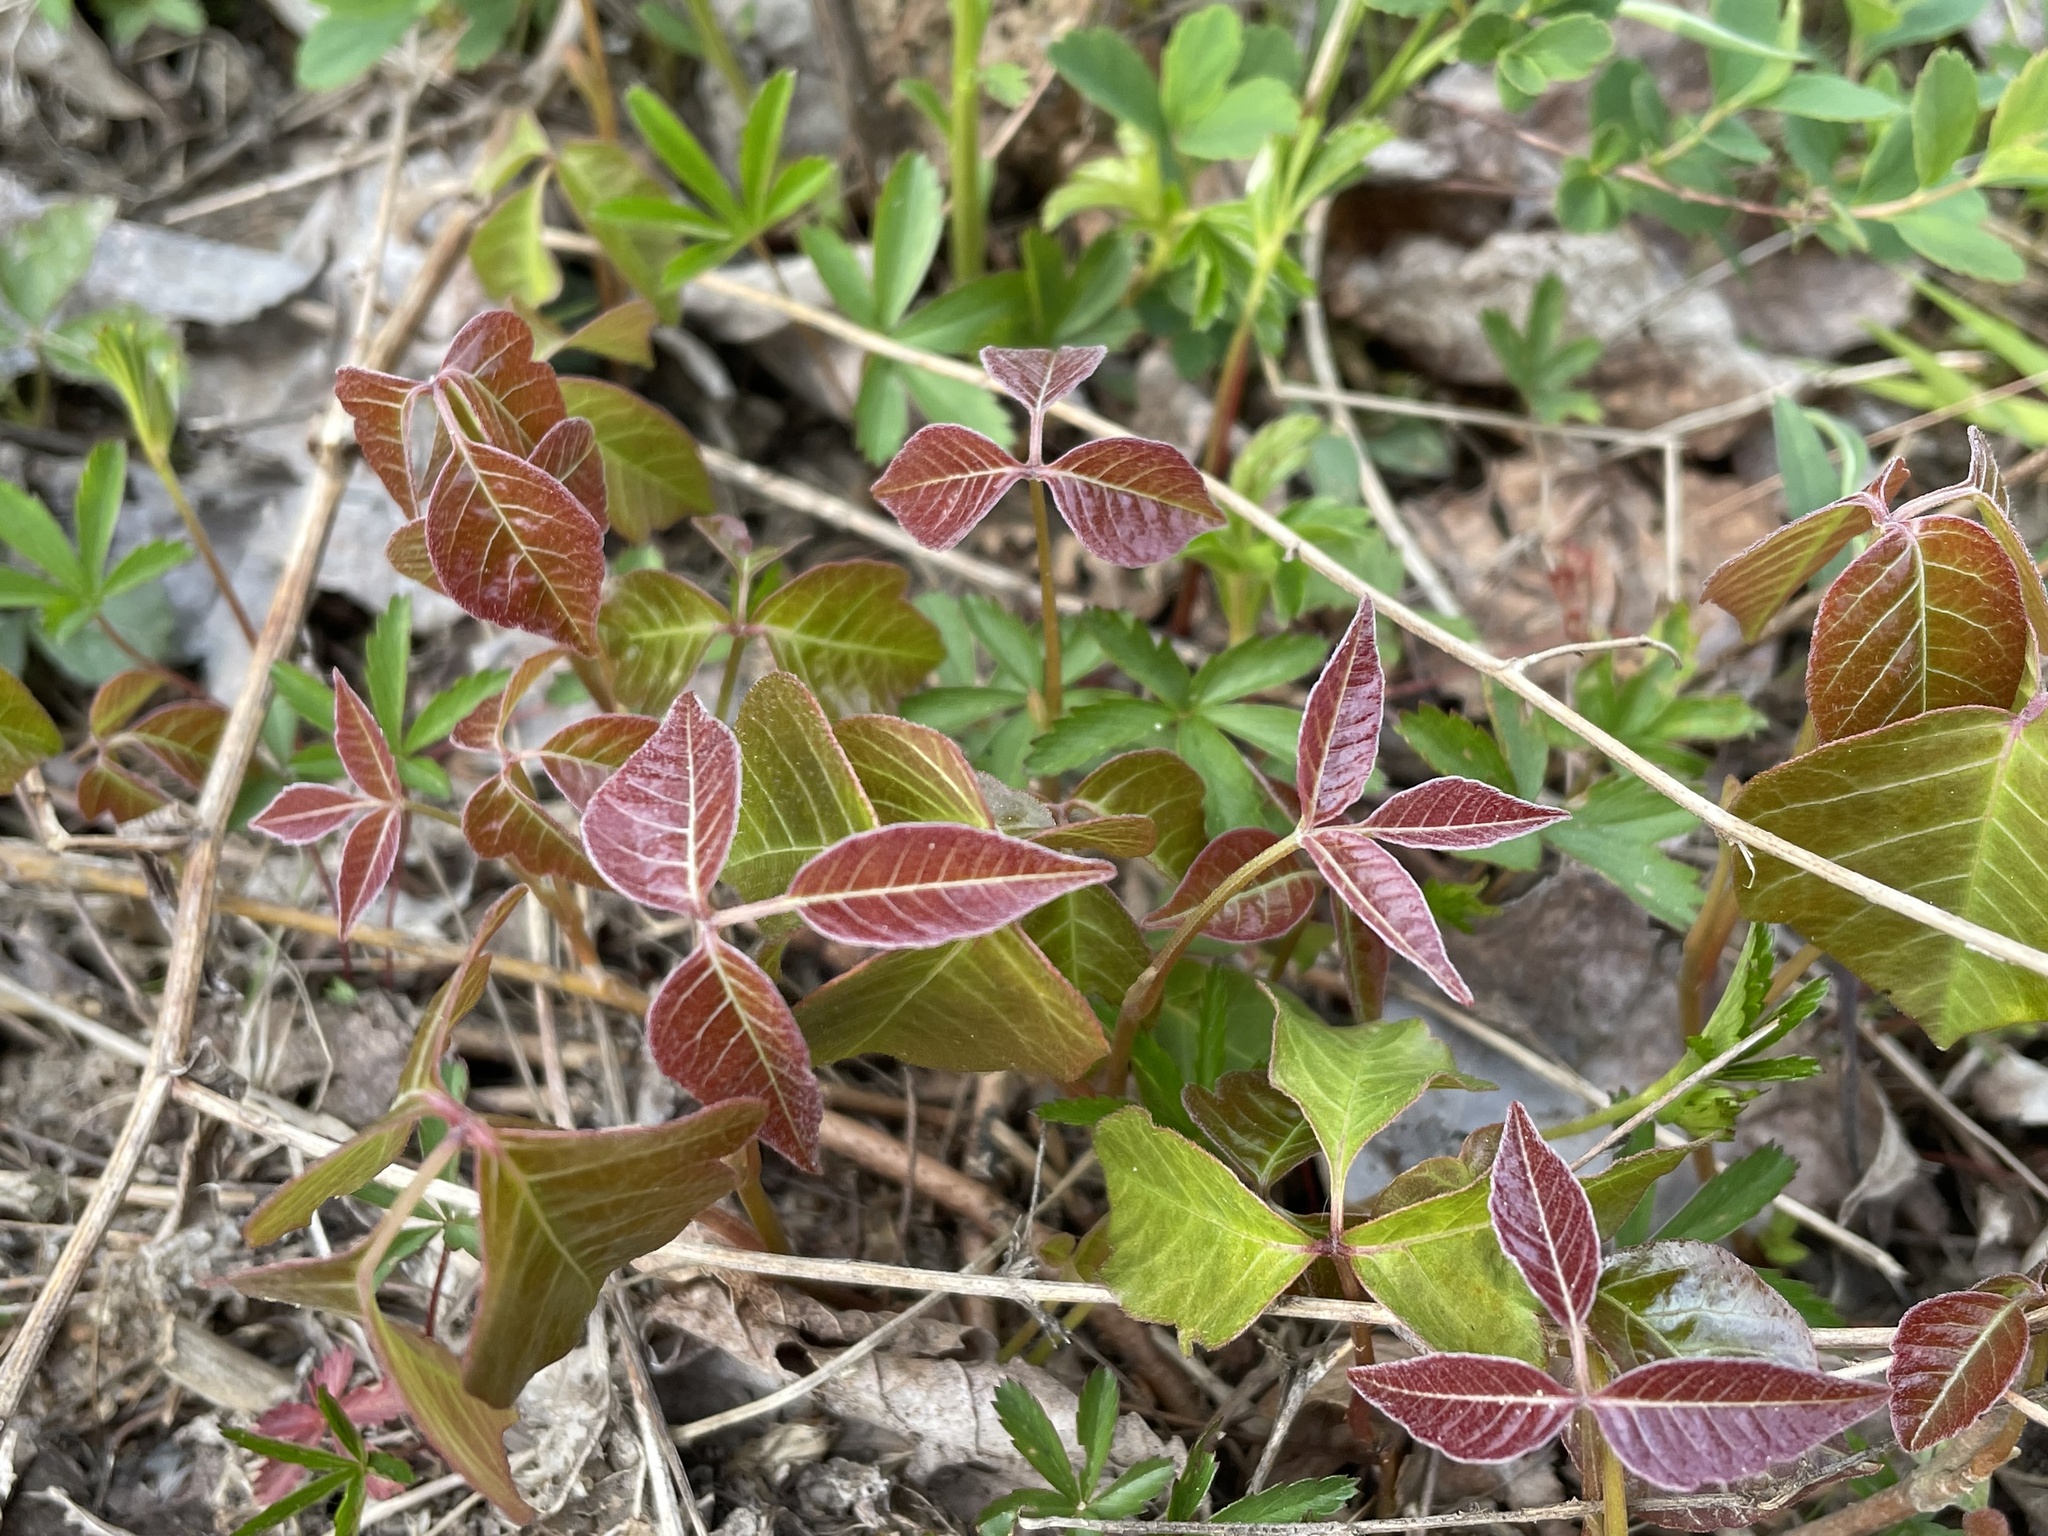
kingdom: Plantae
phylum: Tracheophyta
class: Magnoliopsida
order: Sapindales
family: Anacardiaceae
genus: Toxicodendron
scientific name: Toxicodendron radicans
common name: Poison ivy
